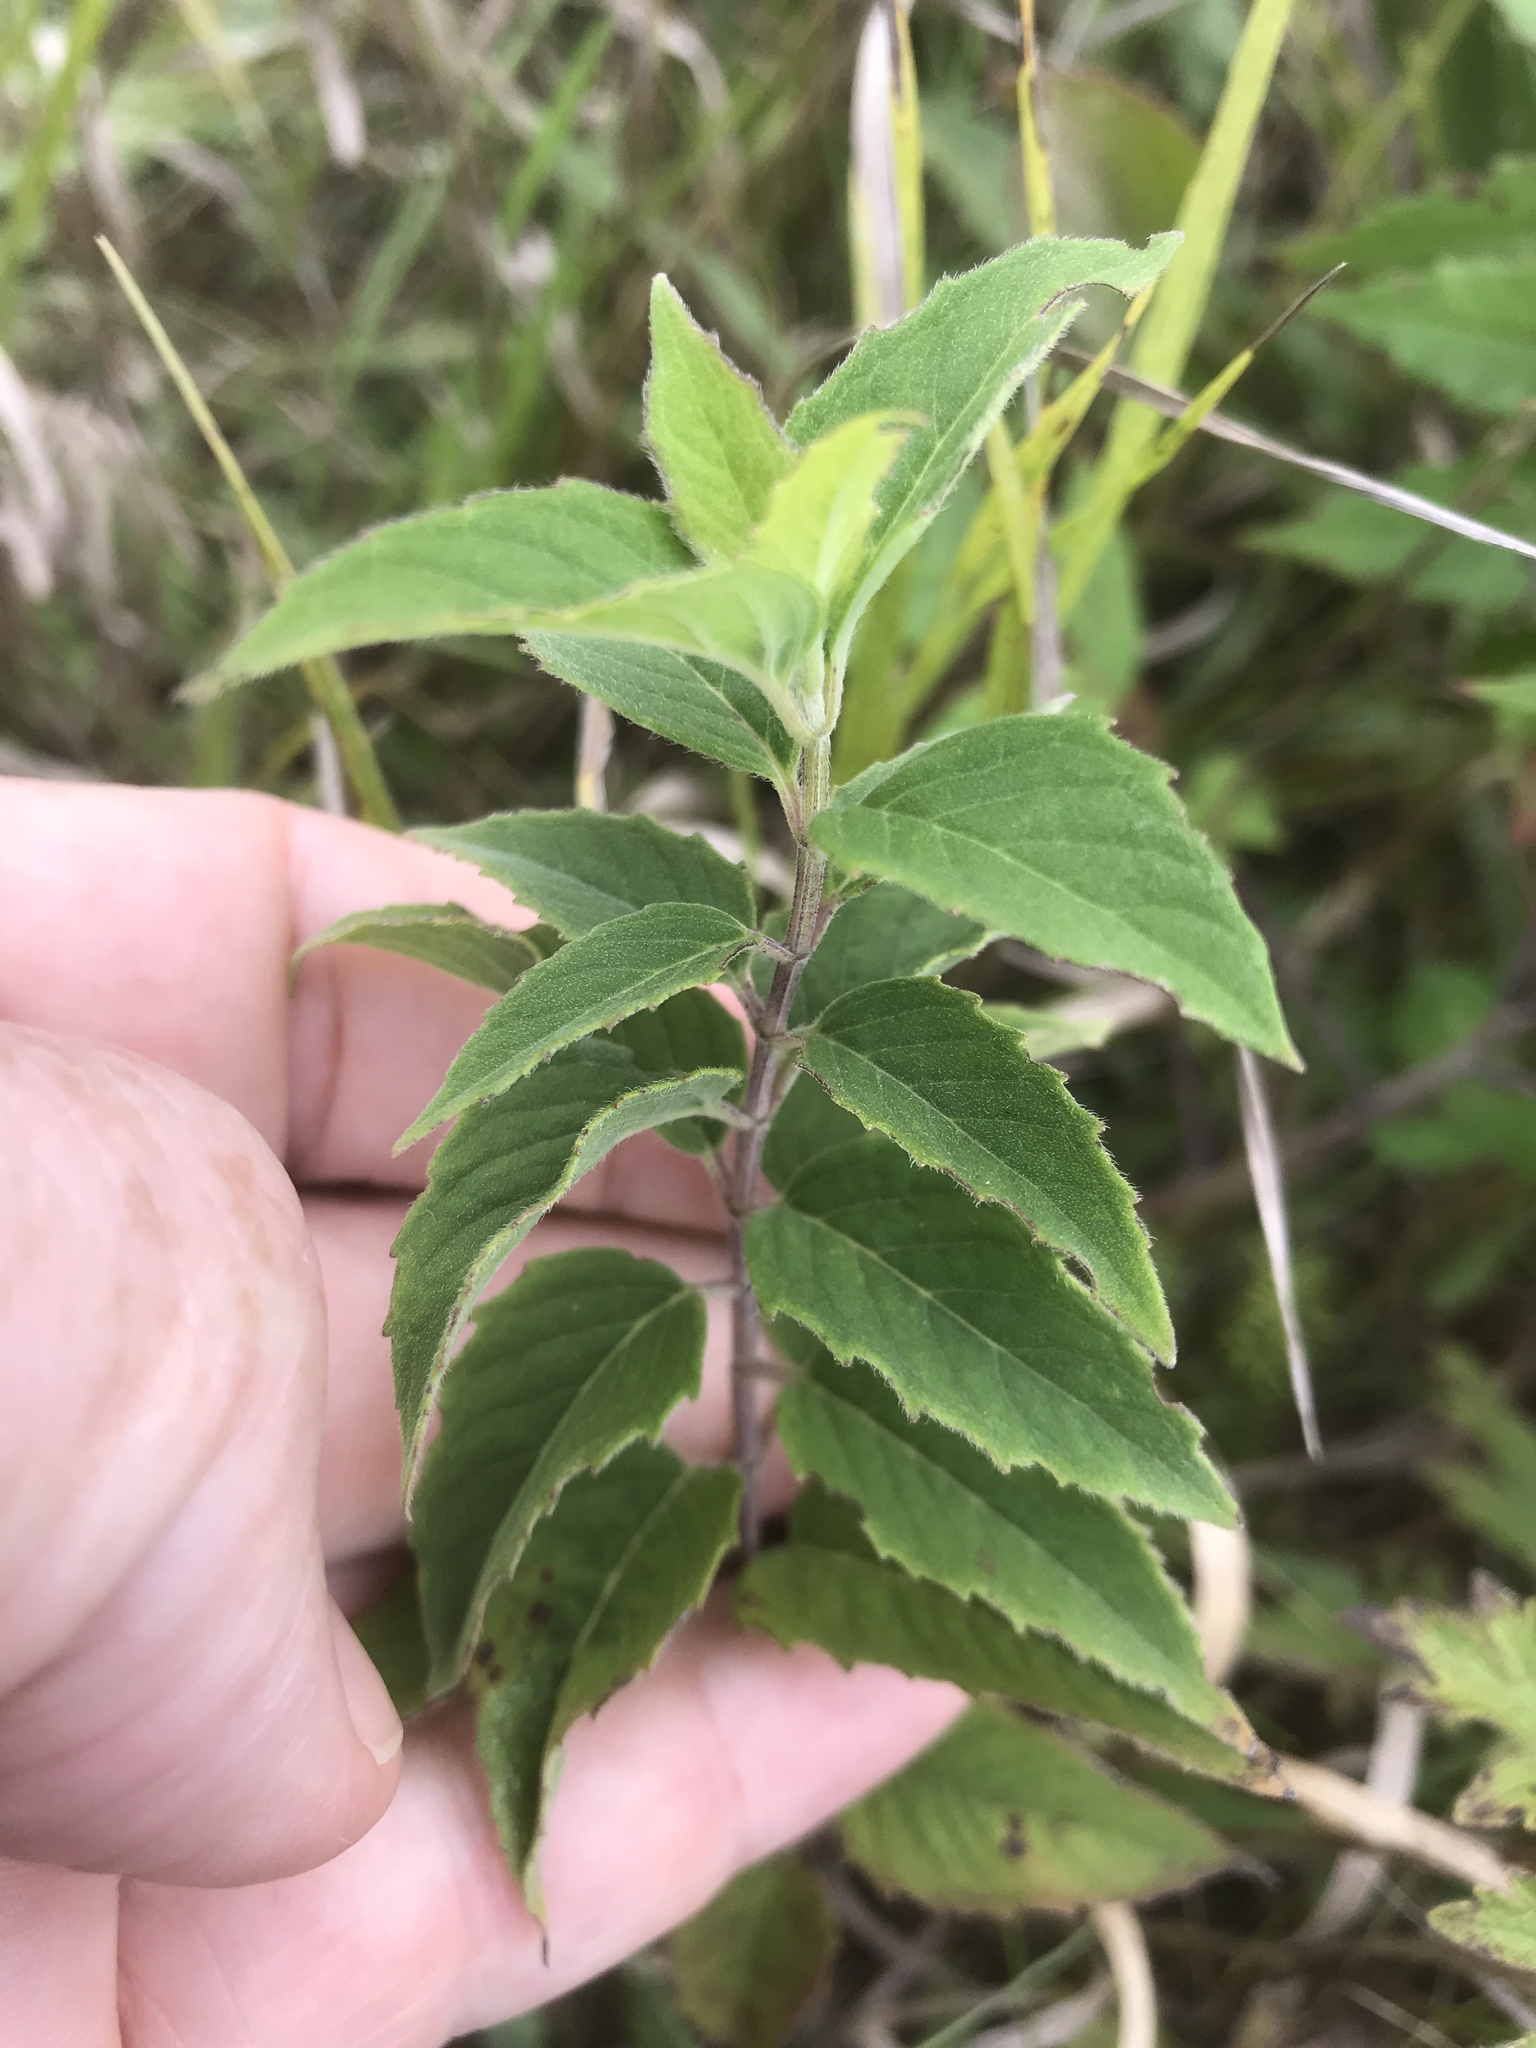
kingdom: Plantae
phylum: Tracheophyta
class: Magnoliopsida
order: Lamiales
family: Lamiaceae
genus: Monarda
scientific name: Monarda fistulosa
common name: Purple beebalm
